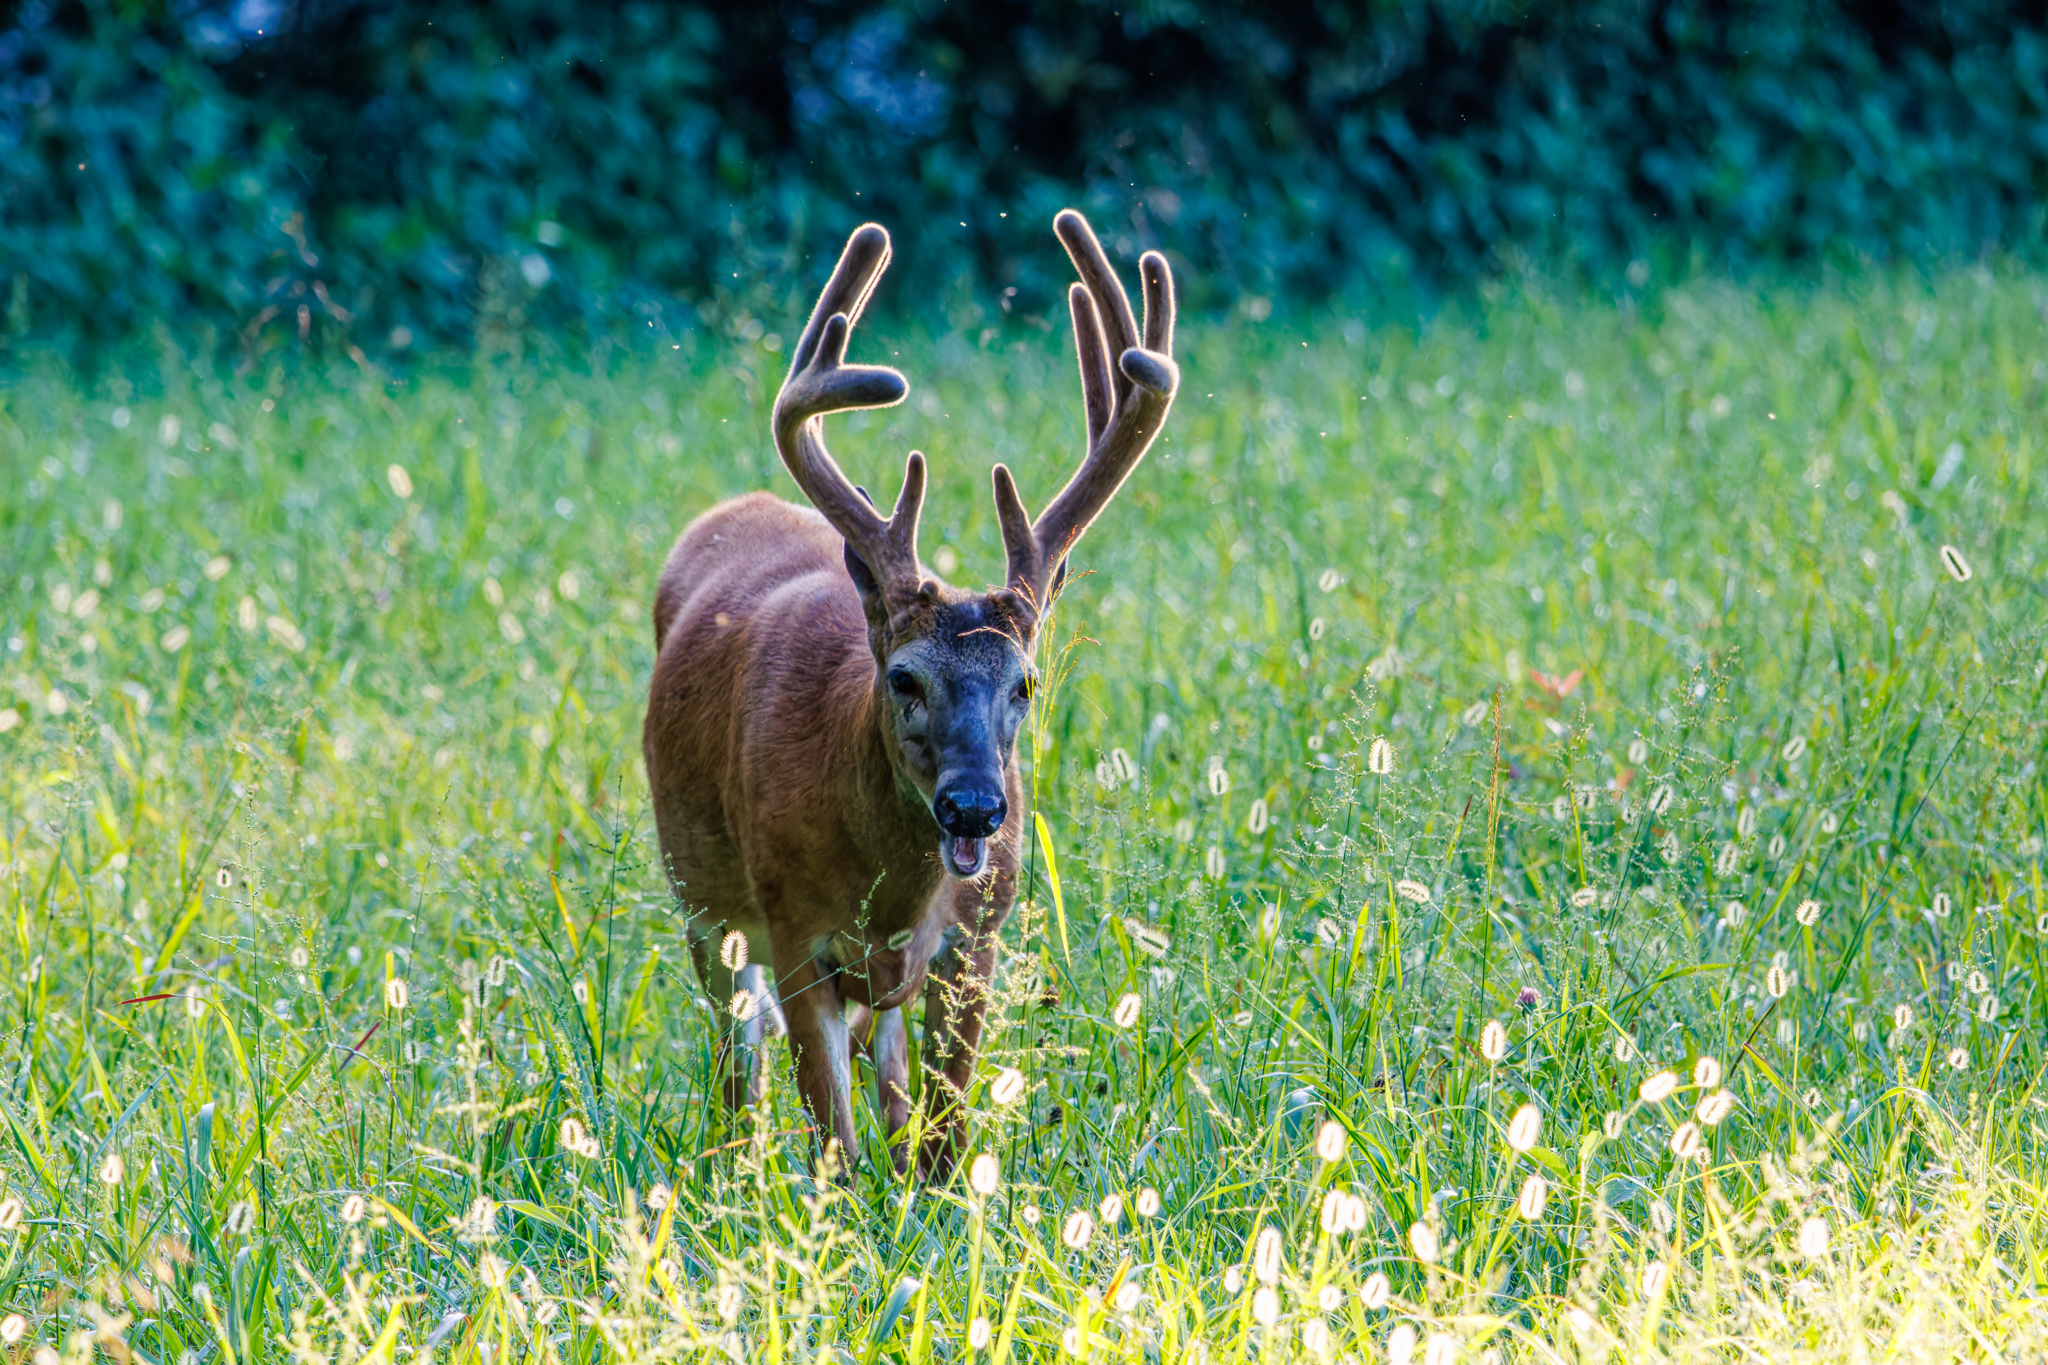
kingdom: Animalia
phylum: Chordata
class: Mammalia
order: Artiodactyla
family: Cervidae
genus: Odocoileus
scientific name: Odocoileus virginianus
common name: White-tailed deer
